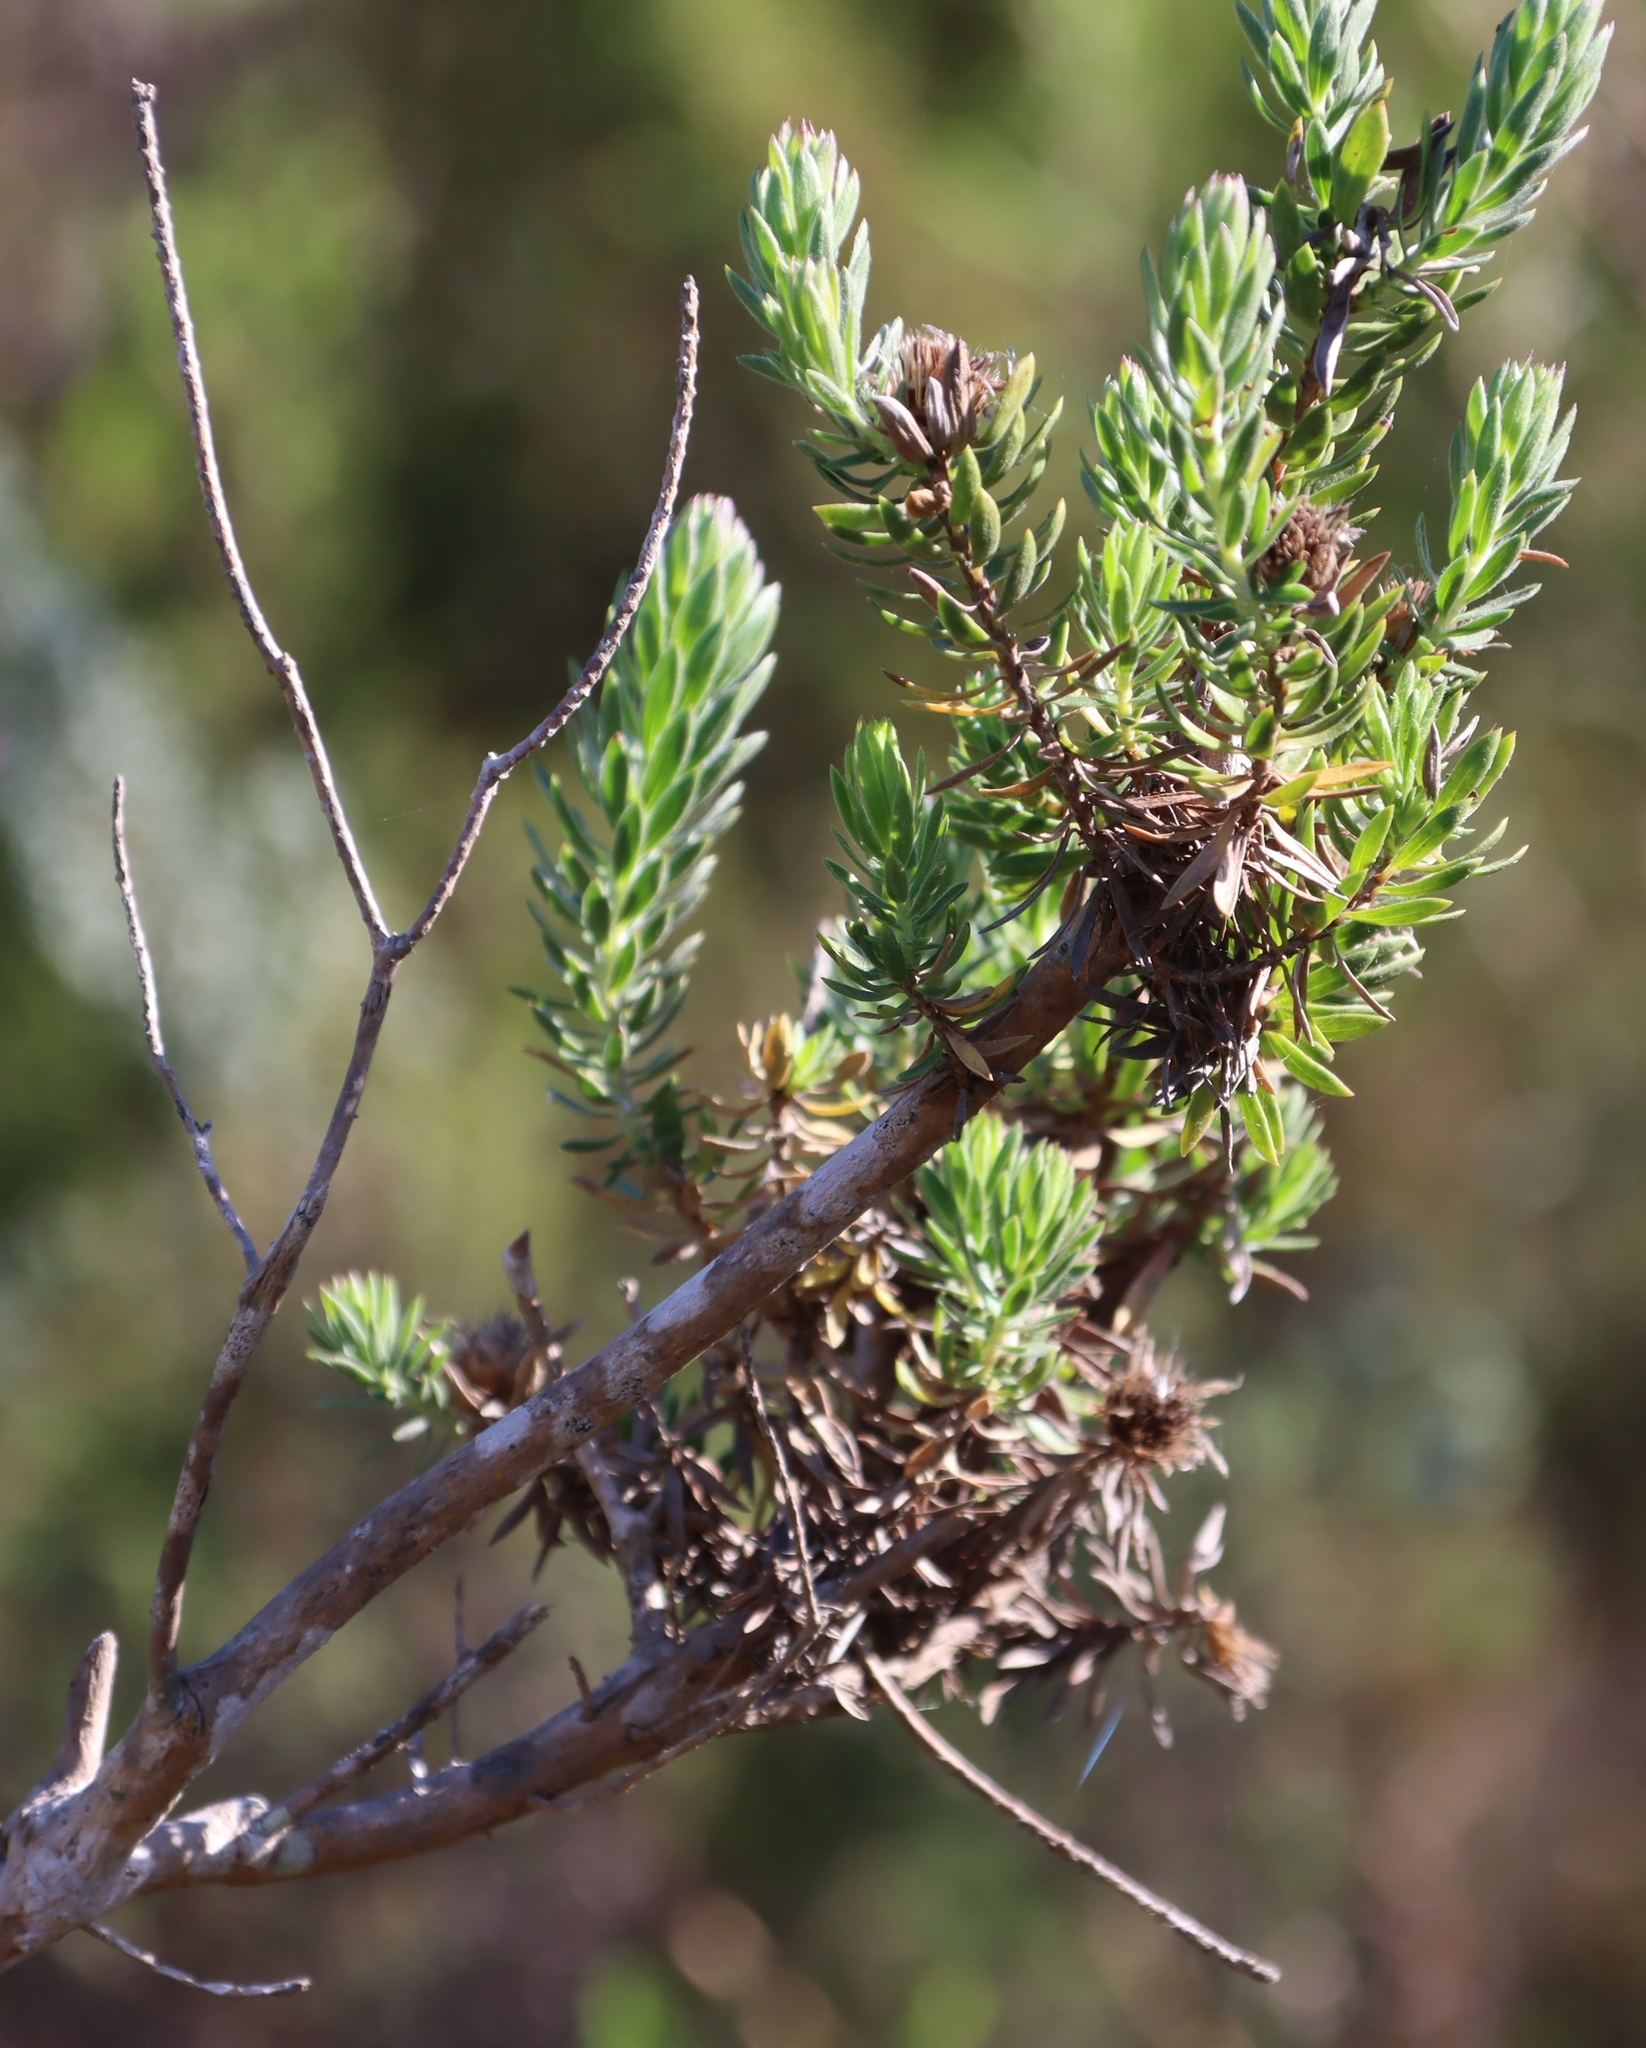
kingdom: Plantae
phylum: Tracheophyta
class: Magnoliopsida
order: Asterales
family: Asteraceae
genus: Oedera
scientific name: Oedera calycina
